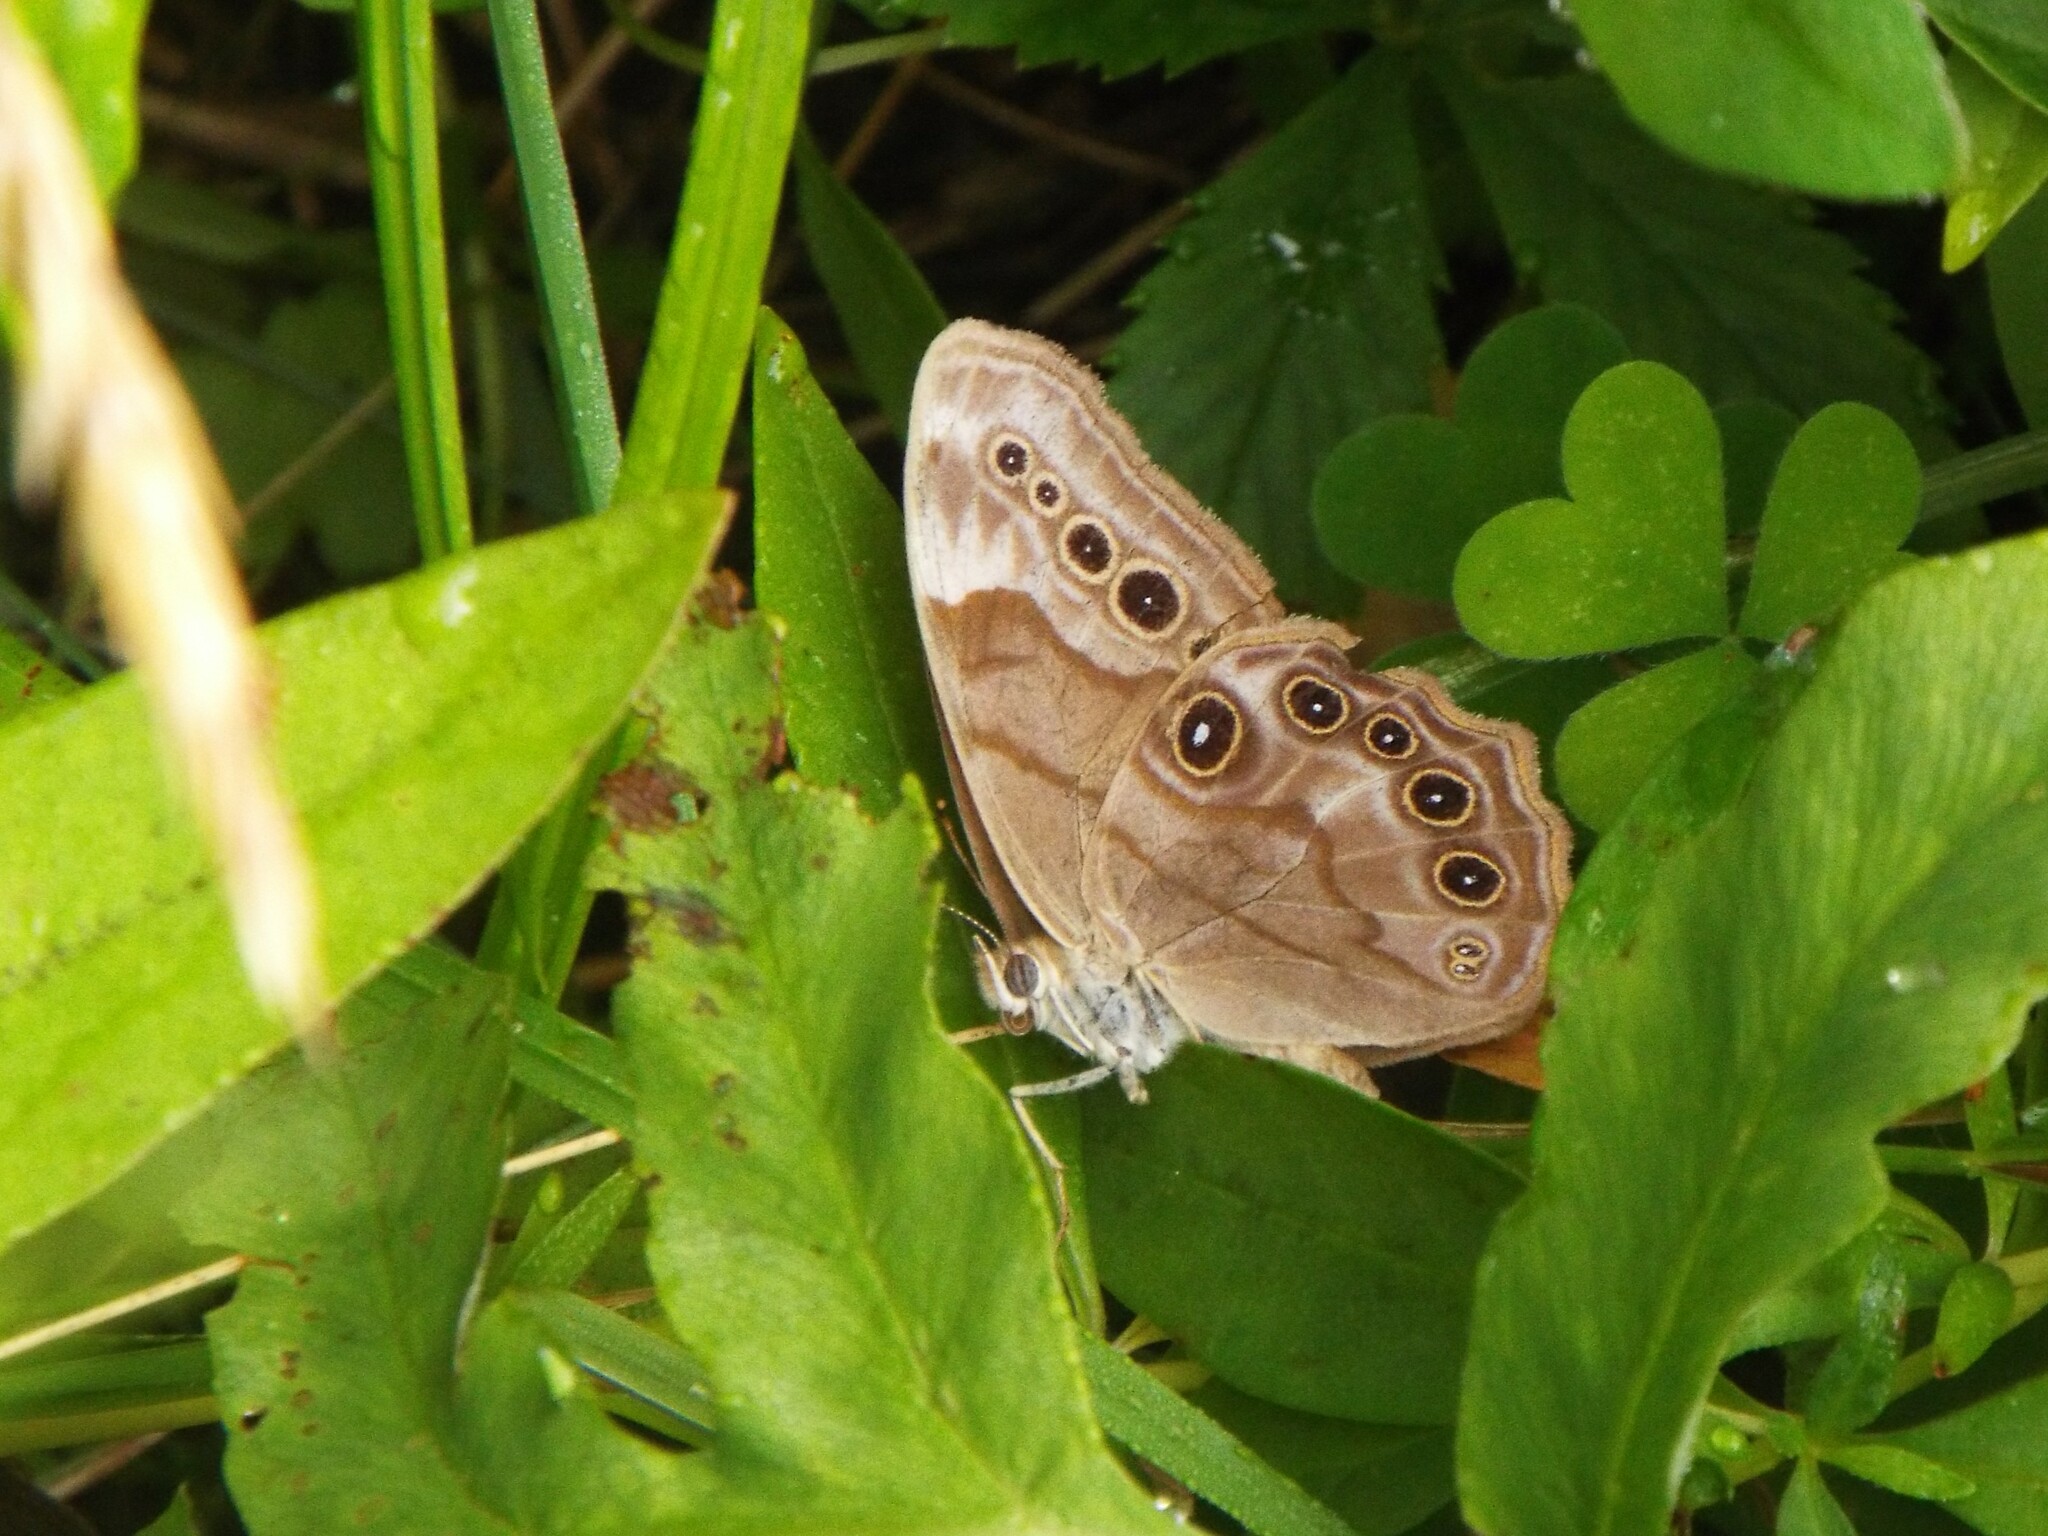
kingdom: Animalia
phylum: Arthropoda
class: Insecta
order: Lepidoptera
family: Nymphalidae
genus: Lethe
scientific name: Lethe anthedon
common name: Northern pearly-eye
